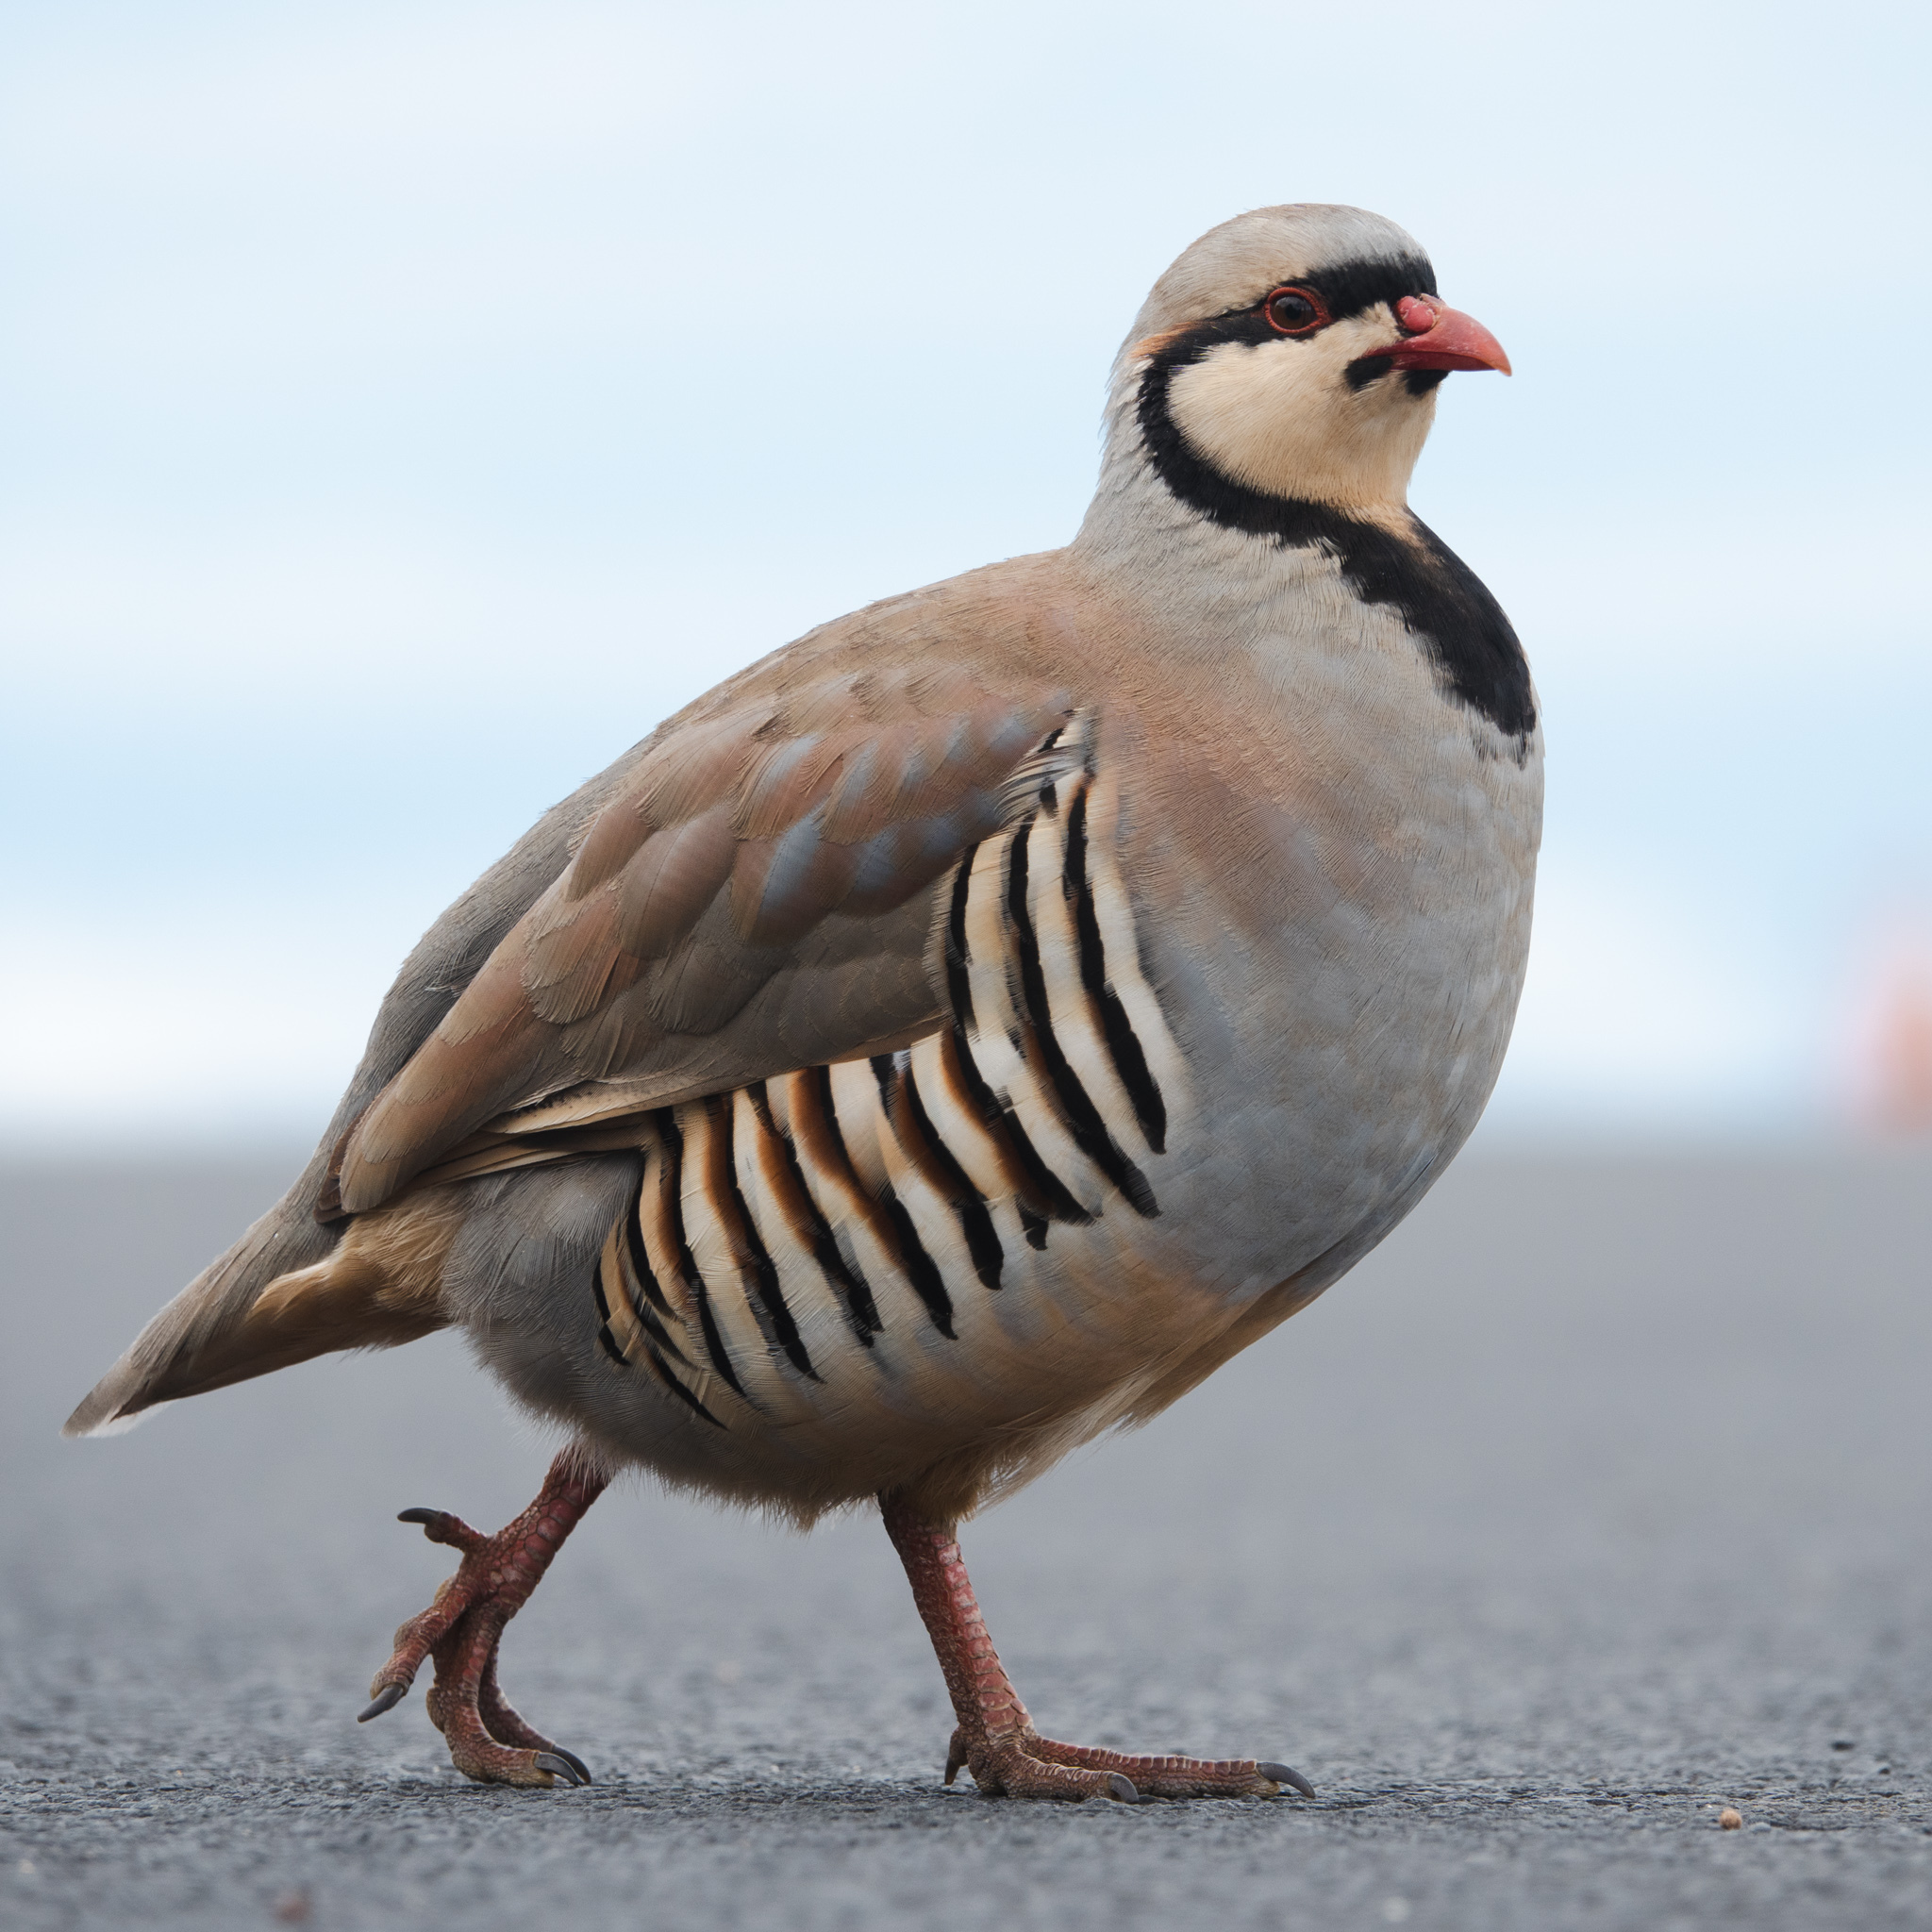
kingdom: Animalia
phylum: Chordata
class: Aves
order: Galliformes
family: Phasianidae
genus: Alectoris
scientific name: Alectoris chukar
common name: Chukar
